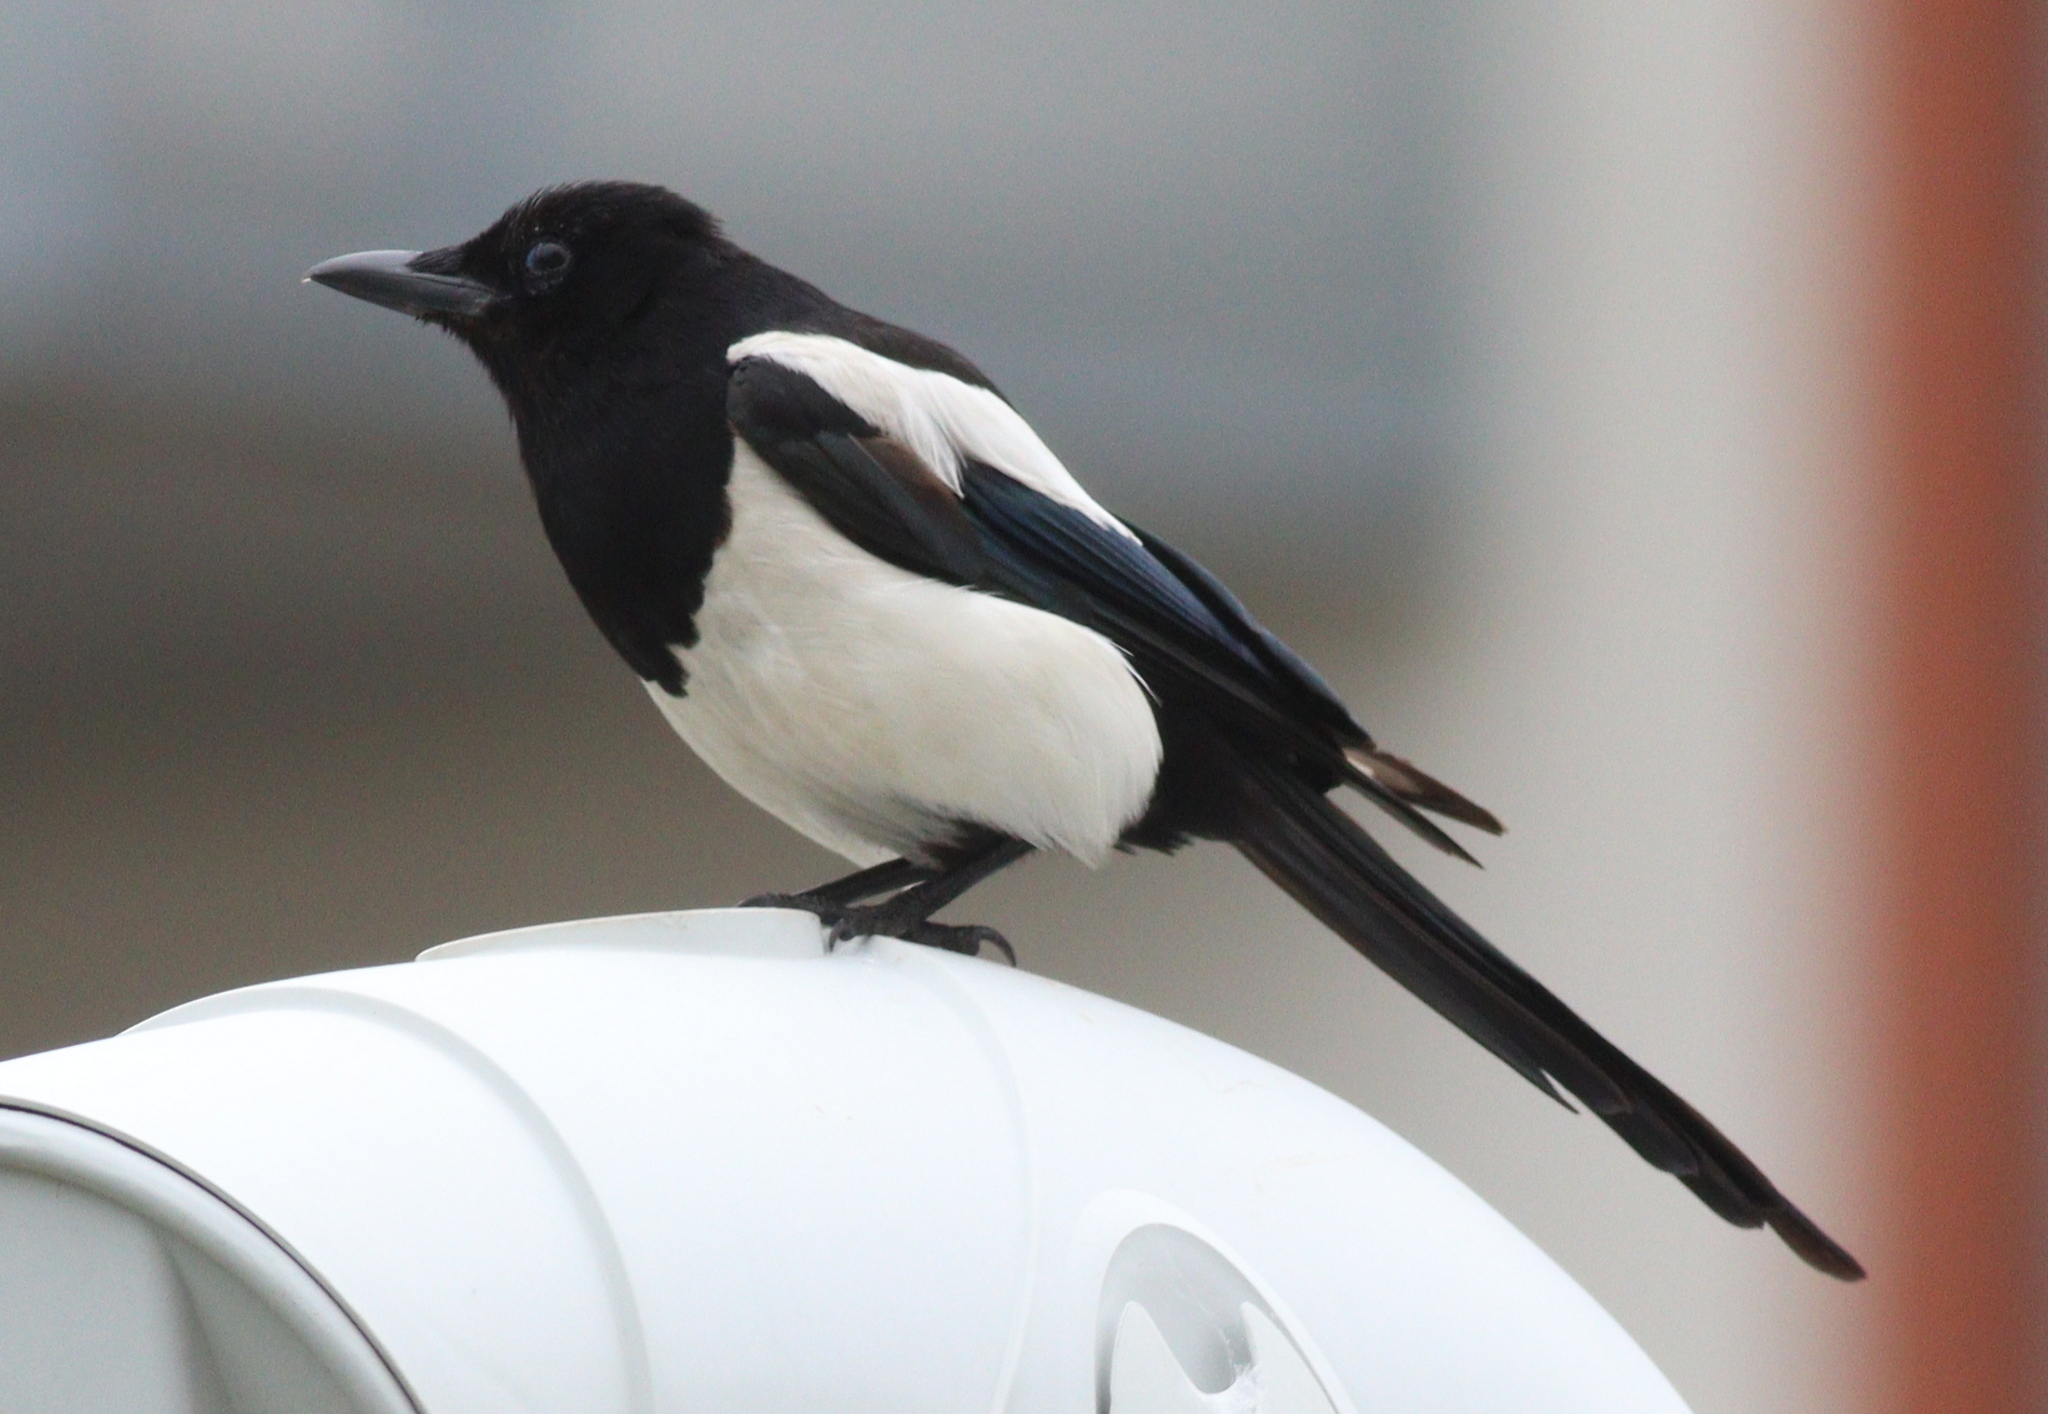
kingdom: Animalia
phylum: Chordata
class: Aves
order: Passeriformes
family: Corvidae
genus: Pica
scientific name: Pica pica
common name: Eurasian magpie
